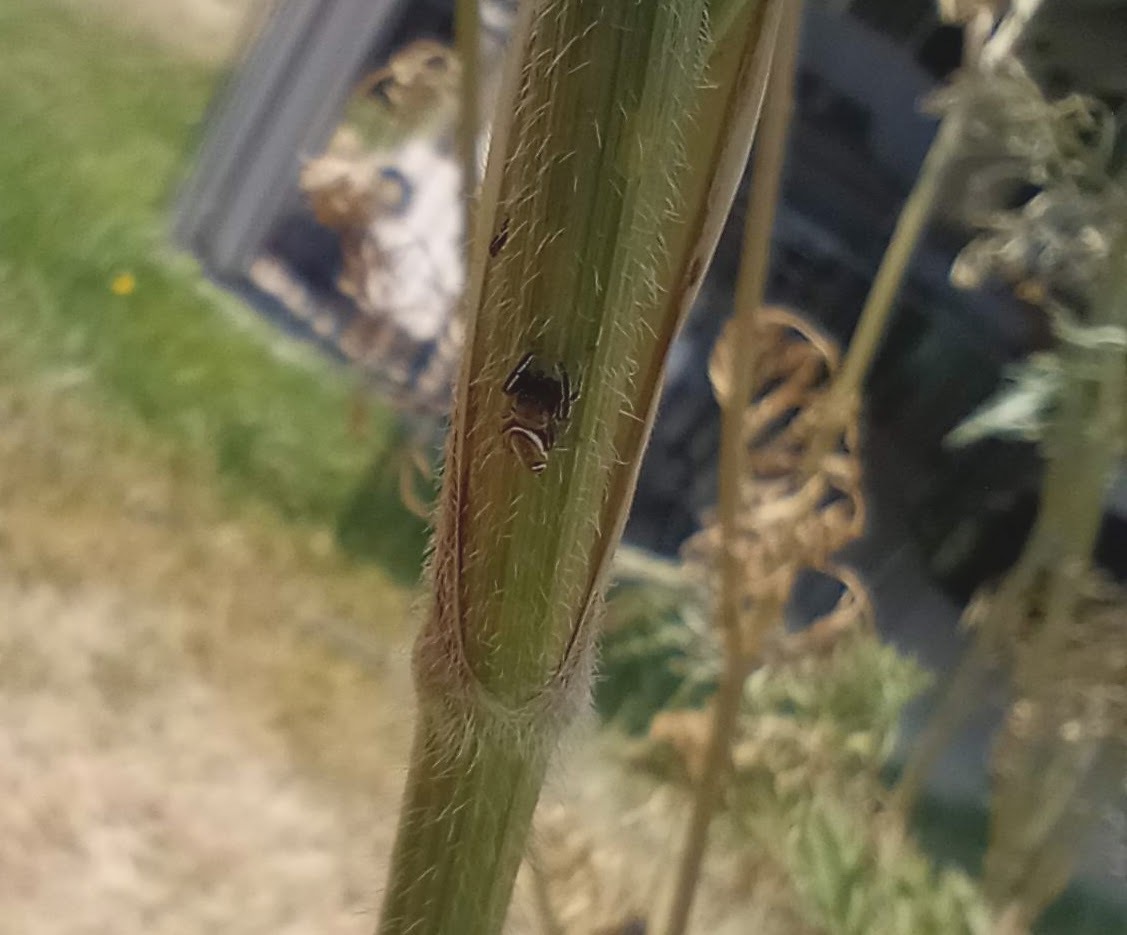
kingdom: Animalia
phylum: Arthropoda
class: Arachnida
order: Araneae
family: Salticidae
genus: Sassacus
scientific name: Sassacus vitis
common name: Jumping spiders
